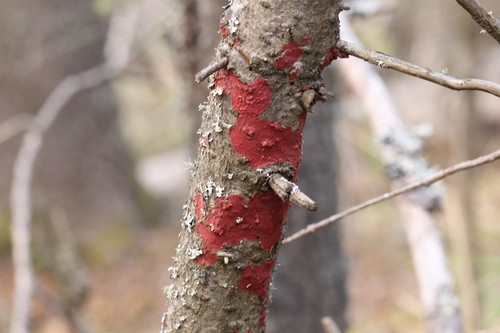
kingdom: Fungi
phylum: Basidiomycota
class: Agaricomycetes
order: Hymenochaetales
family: Hymenochaetaceae
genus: Hymenochaete
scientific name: Hymenochaete cruenta
